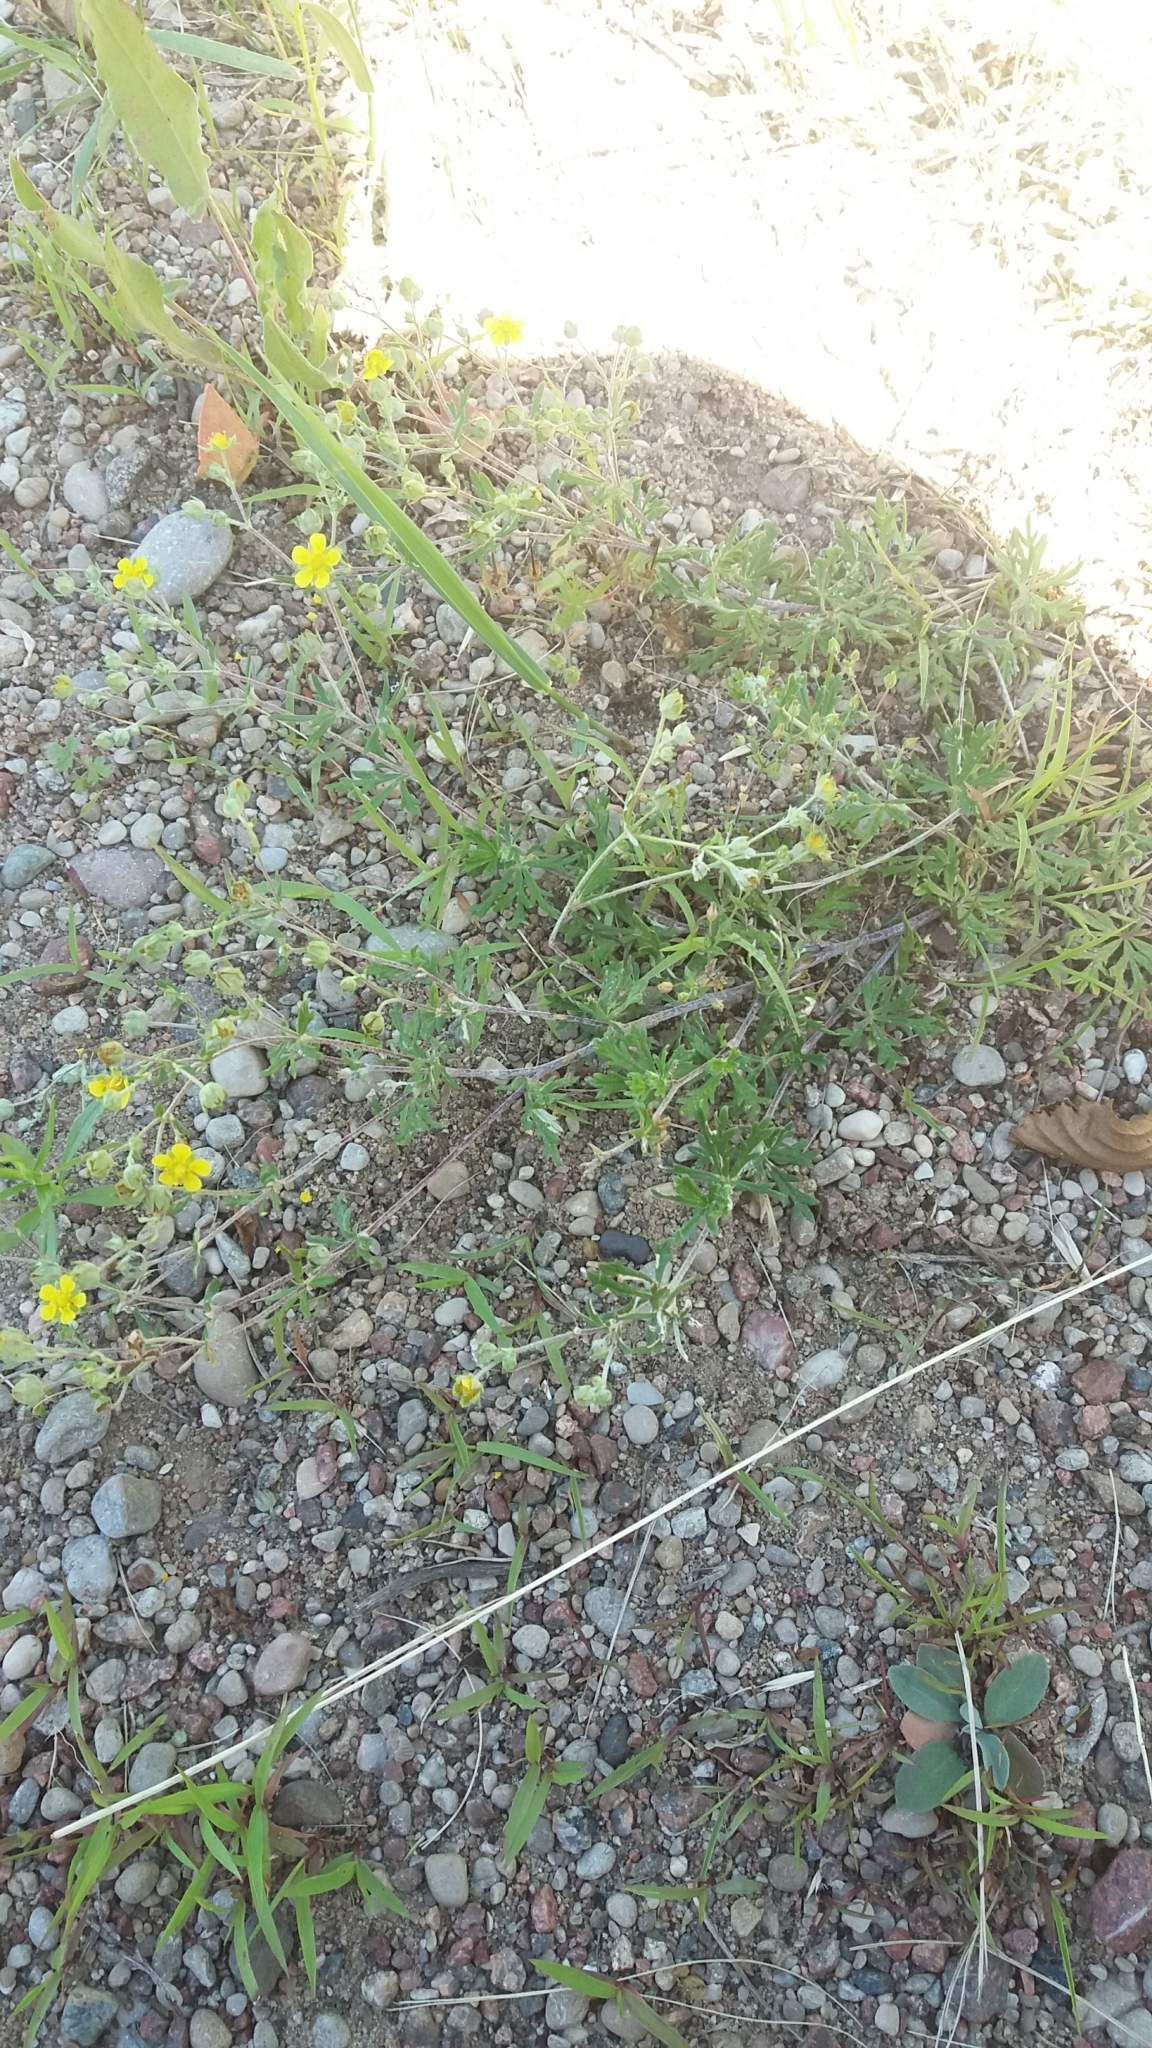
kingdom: Plantae
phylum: Tracheophyta
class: Magnoliopsida
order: Rosales
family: Rosaceae
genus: Potentilla
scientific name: Potentilla argentea
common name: Hoary cinquefoil
